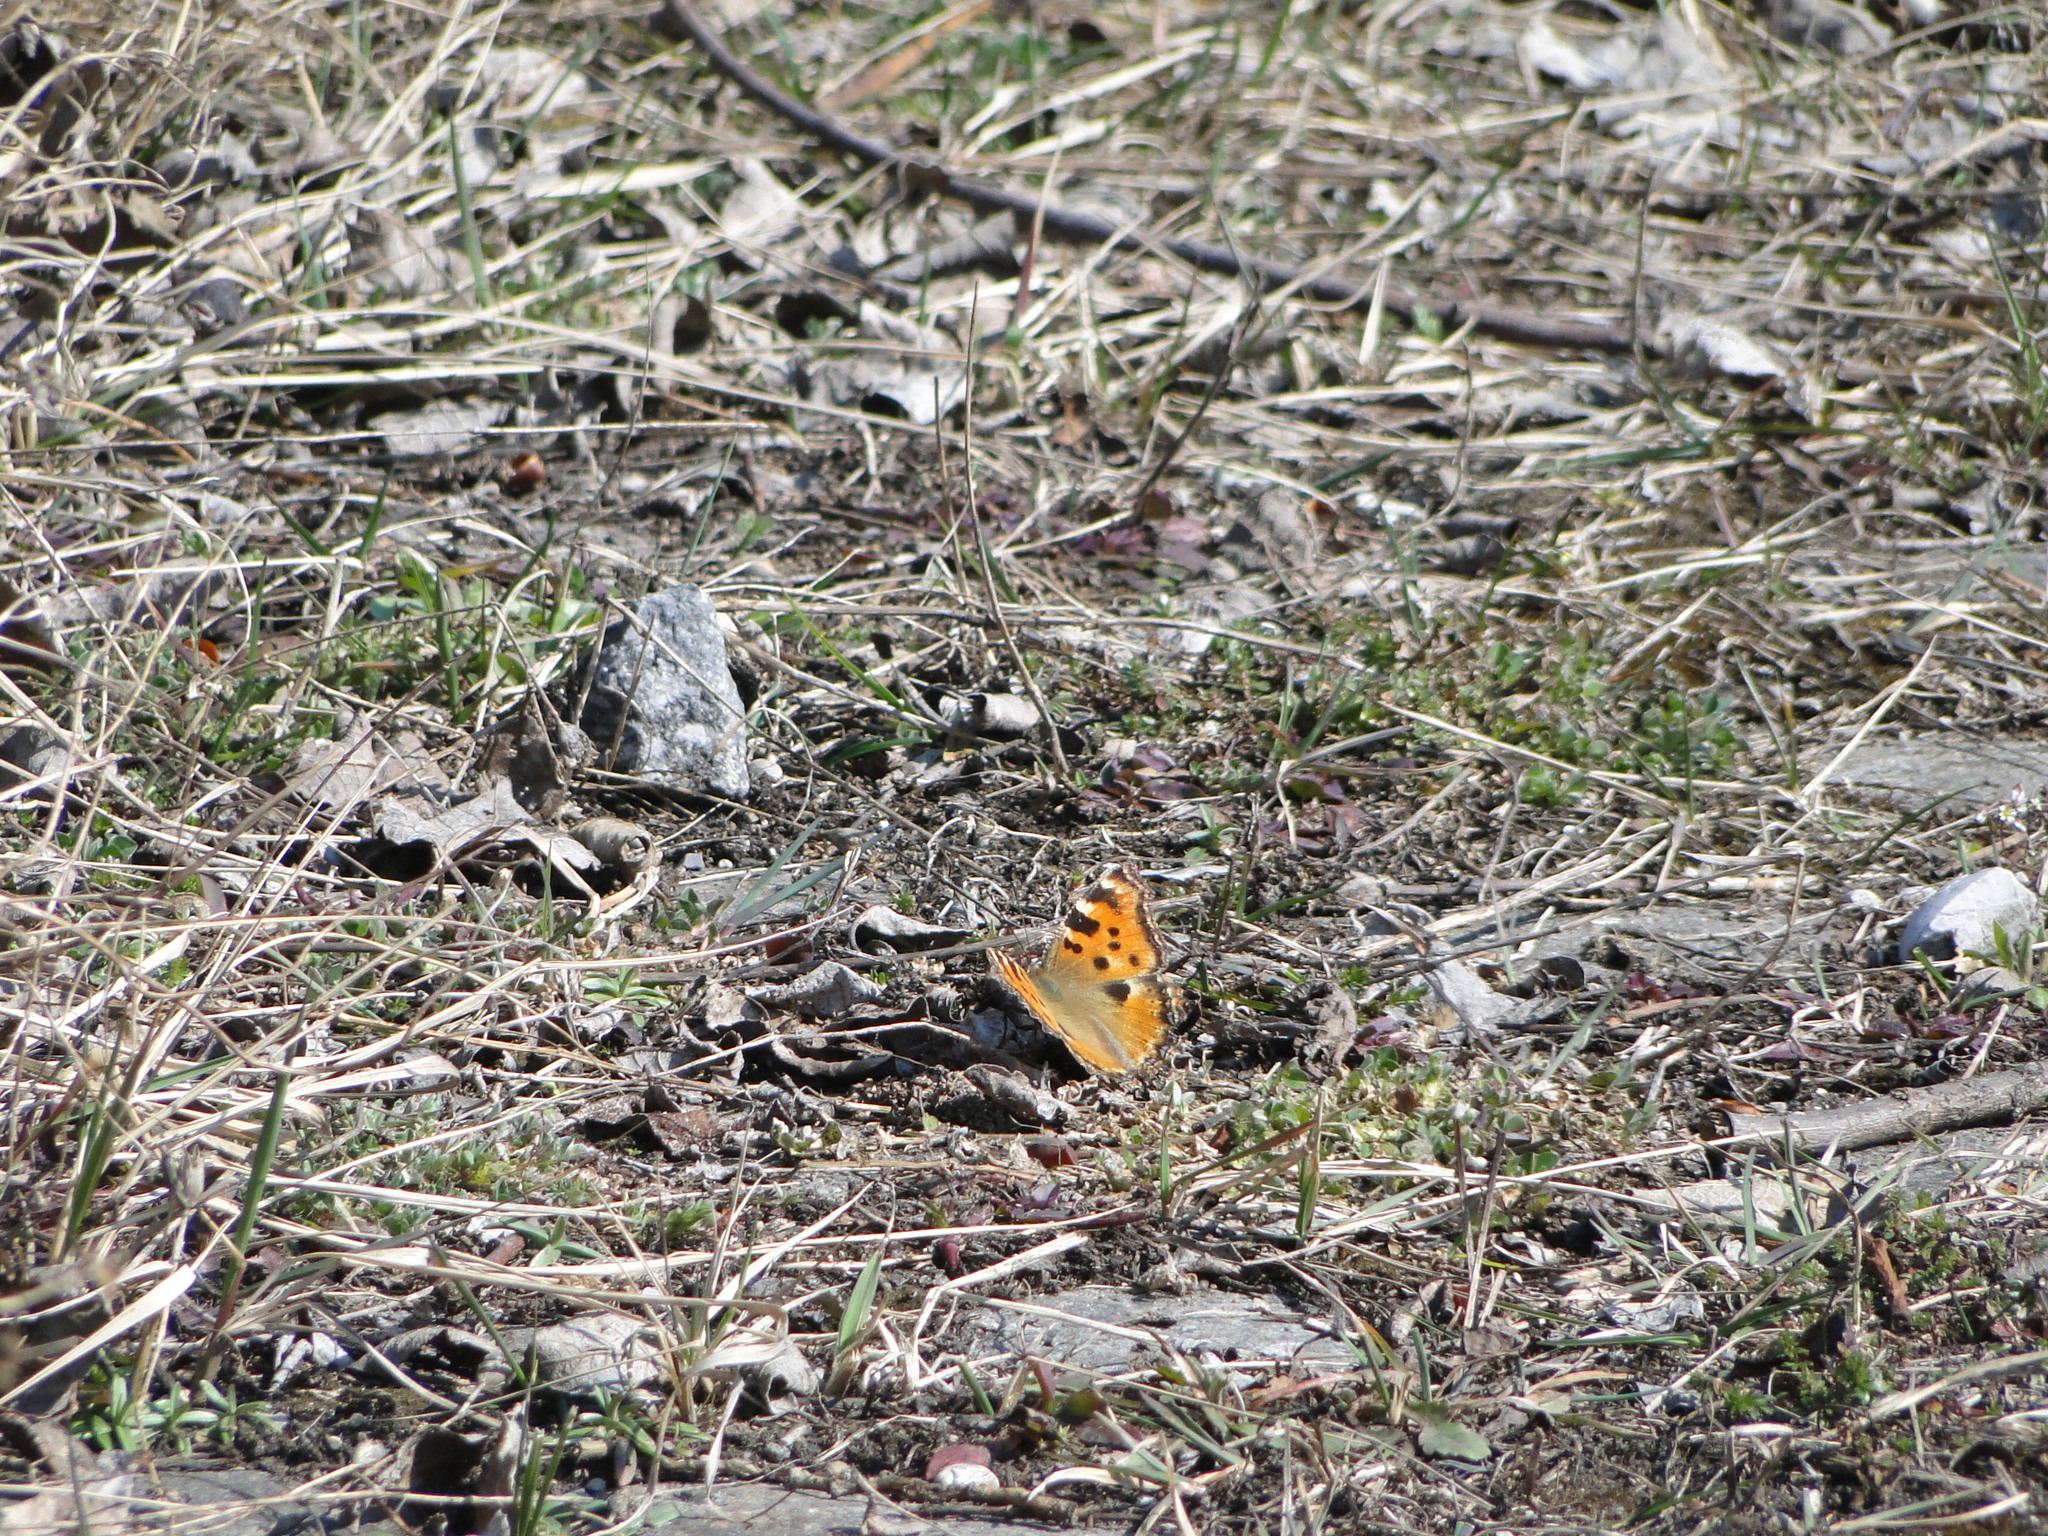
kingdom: Animalia
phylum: Arthropoda
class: Insecta
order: Lepidoptera
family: Nymphalidae
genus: Nymphalis
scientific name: Nymphalis polychloros
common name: Large tortoiseshell
